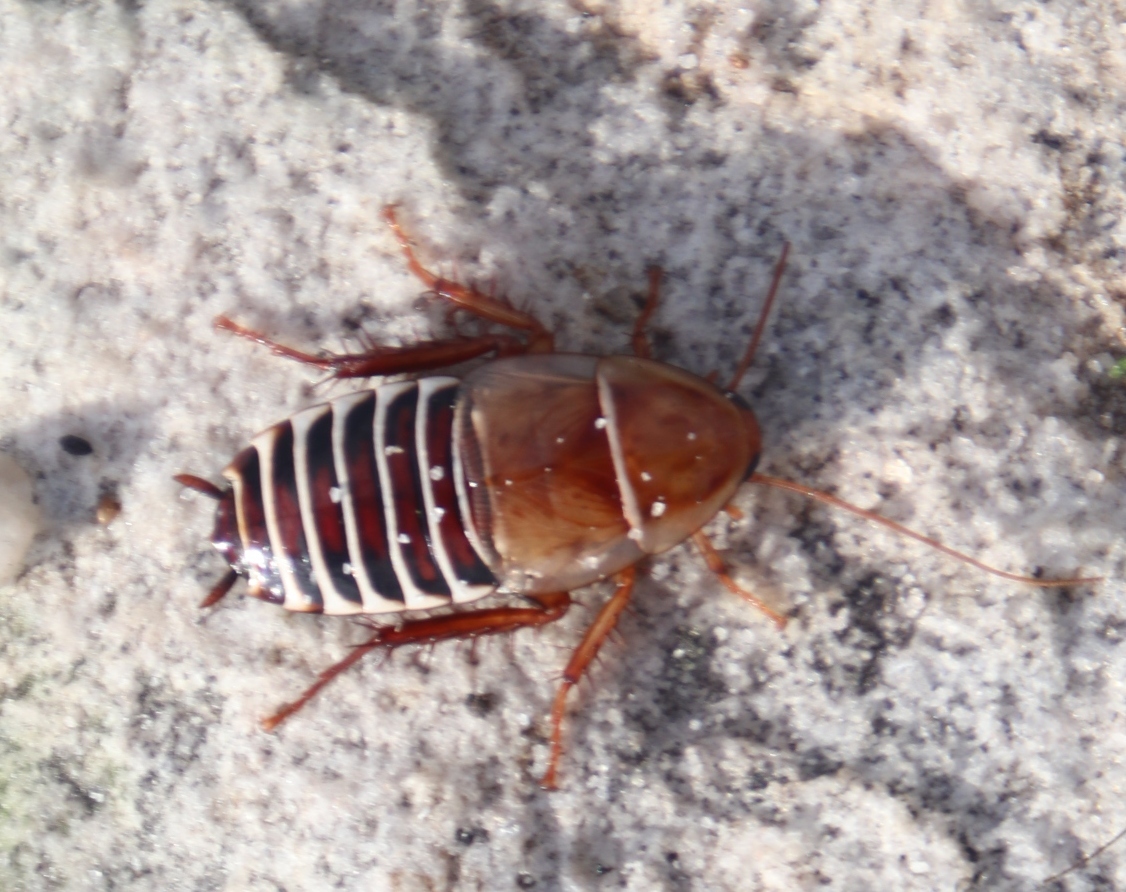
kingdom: Animalia
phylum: Arthropoda
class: Insecta
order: Blattodea
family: Ectobiidae
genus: Temnopteryx
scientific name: Temnopteryx phalerata
